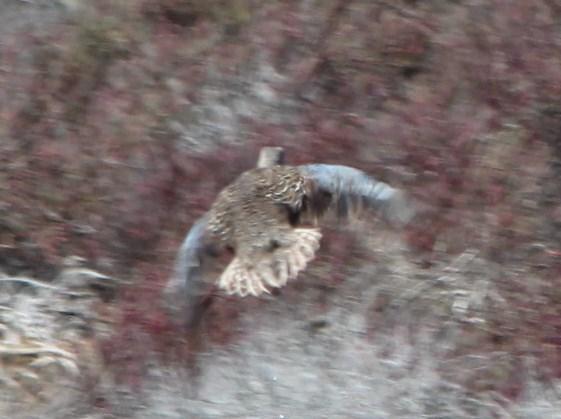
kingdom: Animalia
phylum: Chordata
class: Aves
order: Anseriformes
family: Anatidae
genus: Spatula
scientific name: Spatula smithii
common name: Cape shoveler
